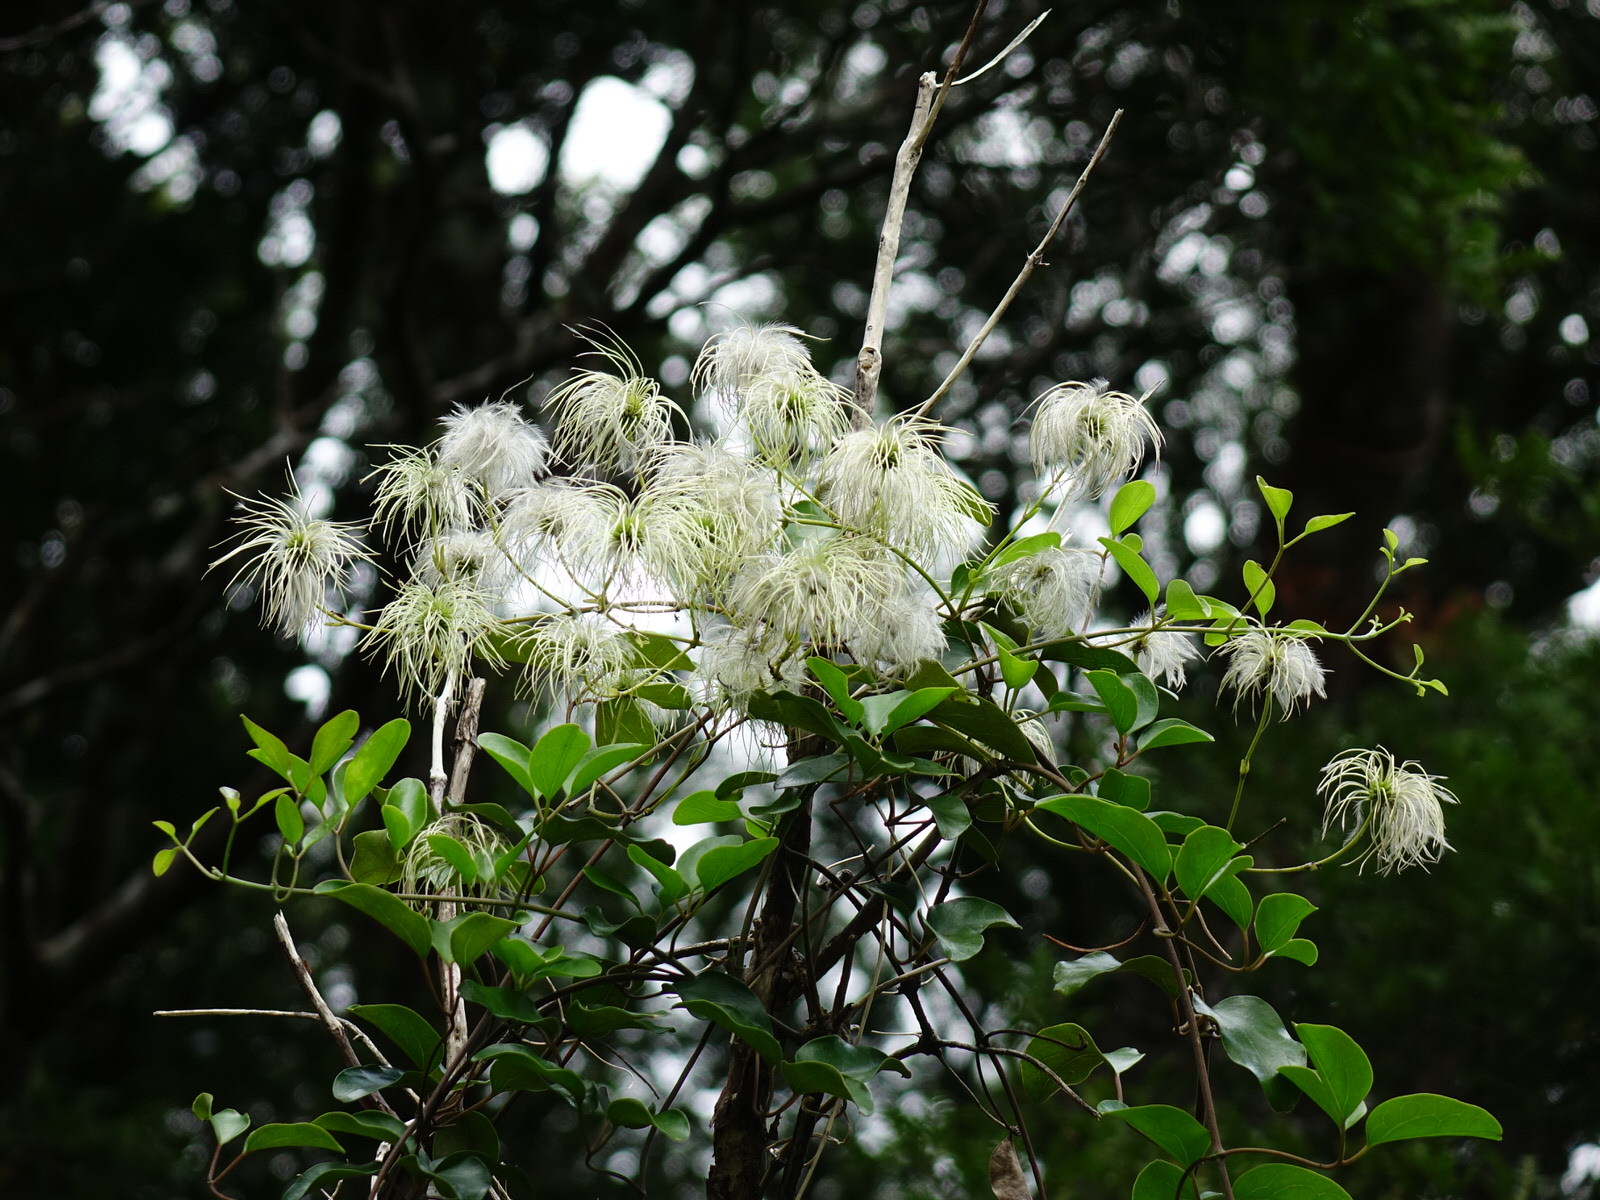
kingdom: Plantae
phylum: Tracheophyta
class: Magnoliopsida
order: Ranunculales
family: Ranunculaceae
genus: Clematis
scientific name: Clematis paniculata
